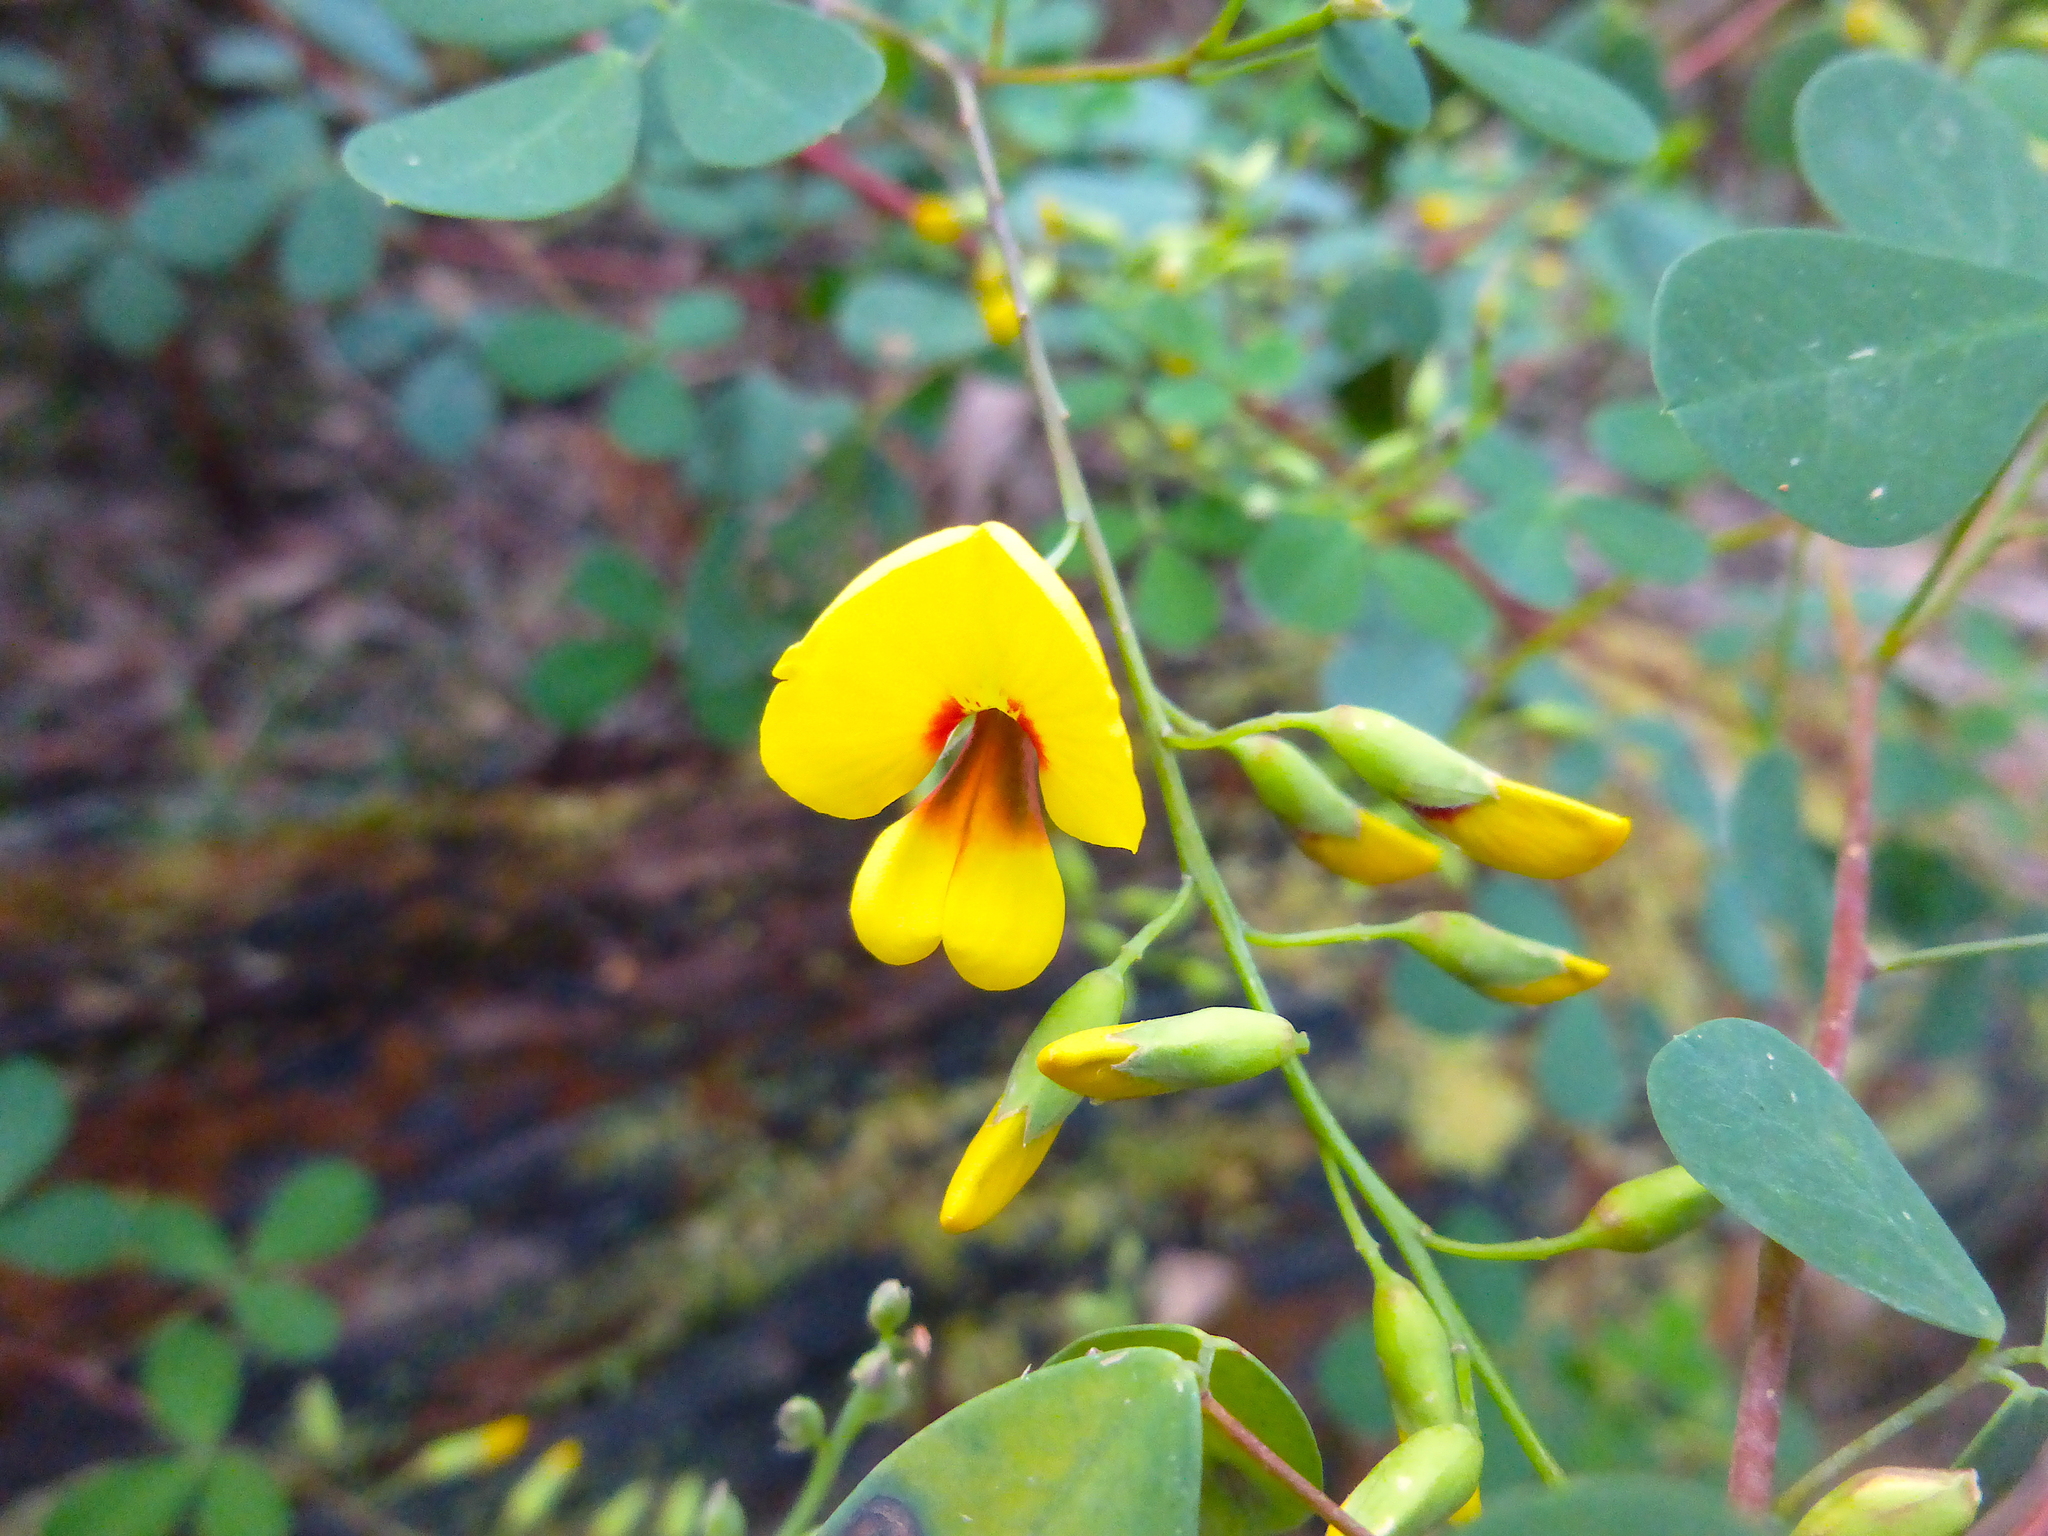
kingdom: Plantae
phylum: Tracheophyta
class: Magnoliopsida
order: Fabales
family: Fabaceae
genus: Goodia
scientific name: Goodia lotifolia
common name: Cloverleaf-poison
